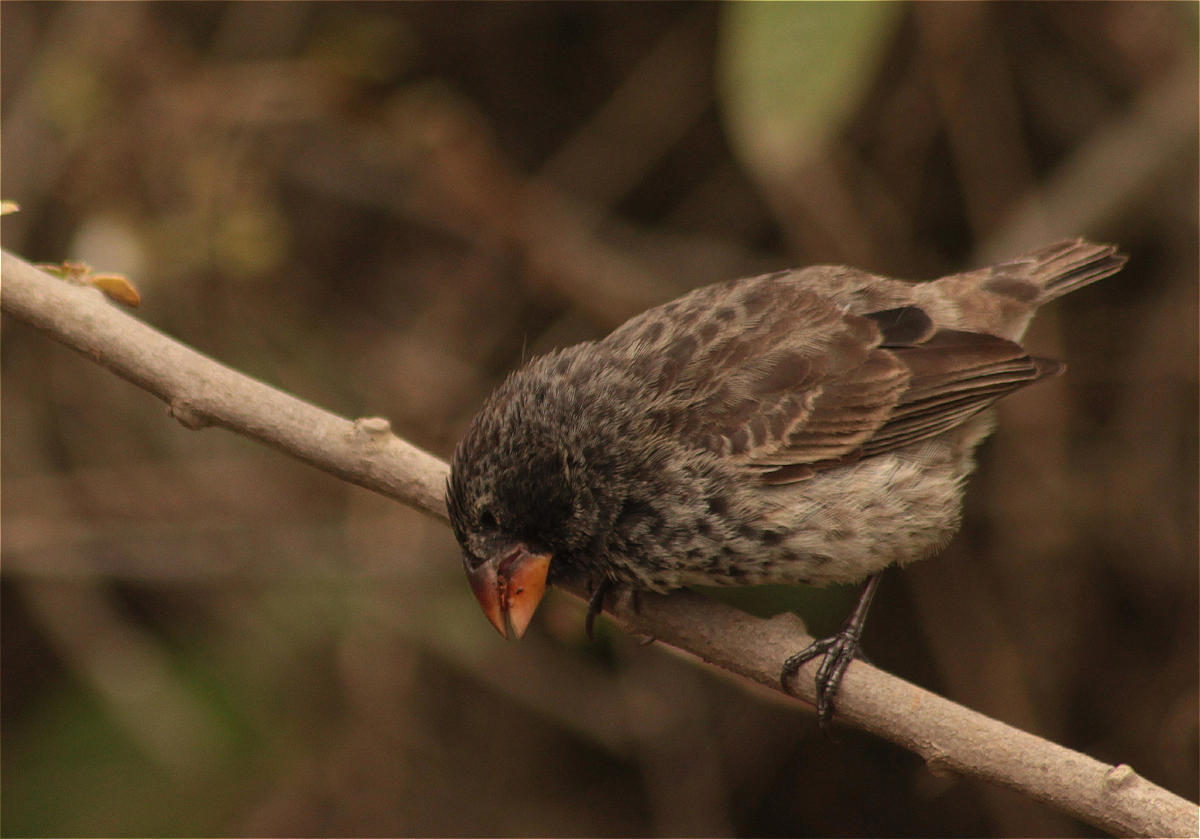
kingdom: Animalia
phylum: Chordata
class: Aves
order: Passeriformes
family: Thraupidae
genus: Geospiza
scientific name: Geospiza fortis
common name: Medium ground finch
